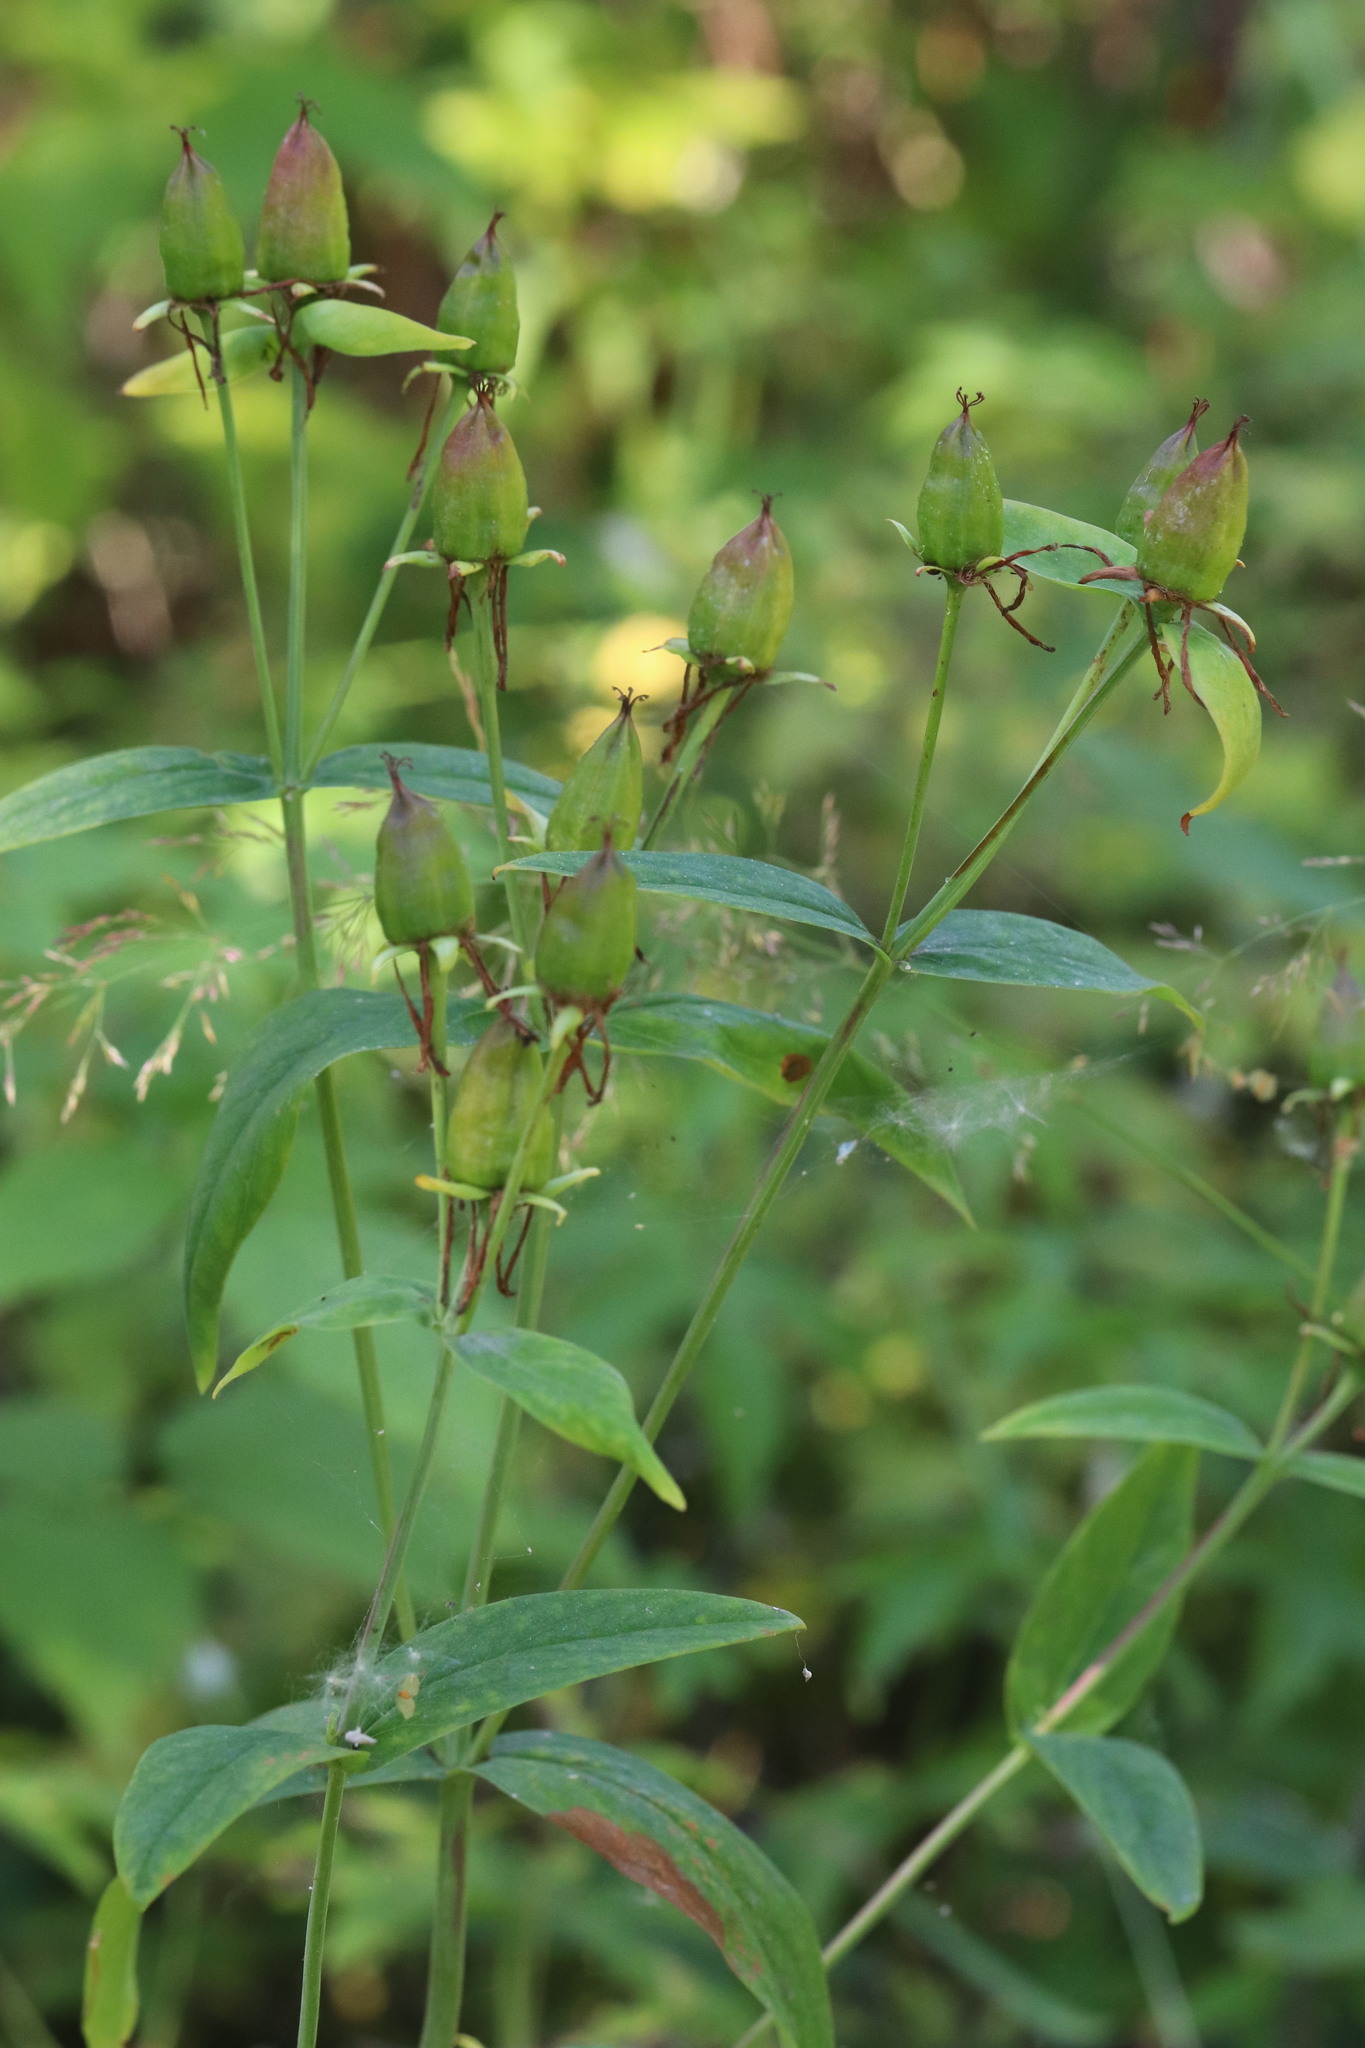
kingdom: Plantae
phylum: Tracheophyta
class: Magnoliopsida
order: Malpighiales
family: Hypericaceae
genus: Hypericum
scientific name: Hypericum ascyron
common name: Giant st. john's-wort
